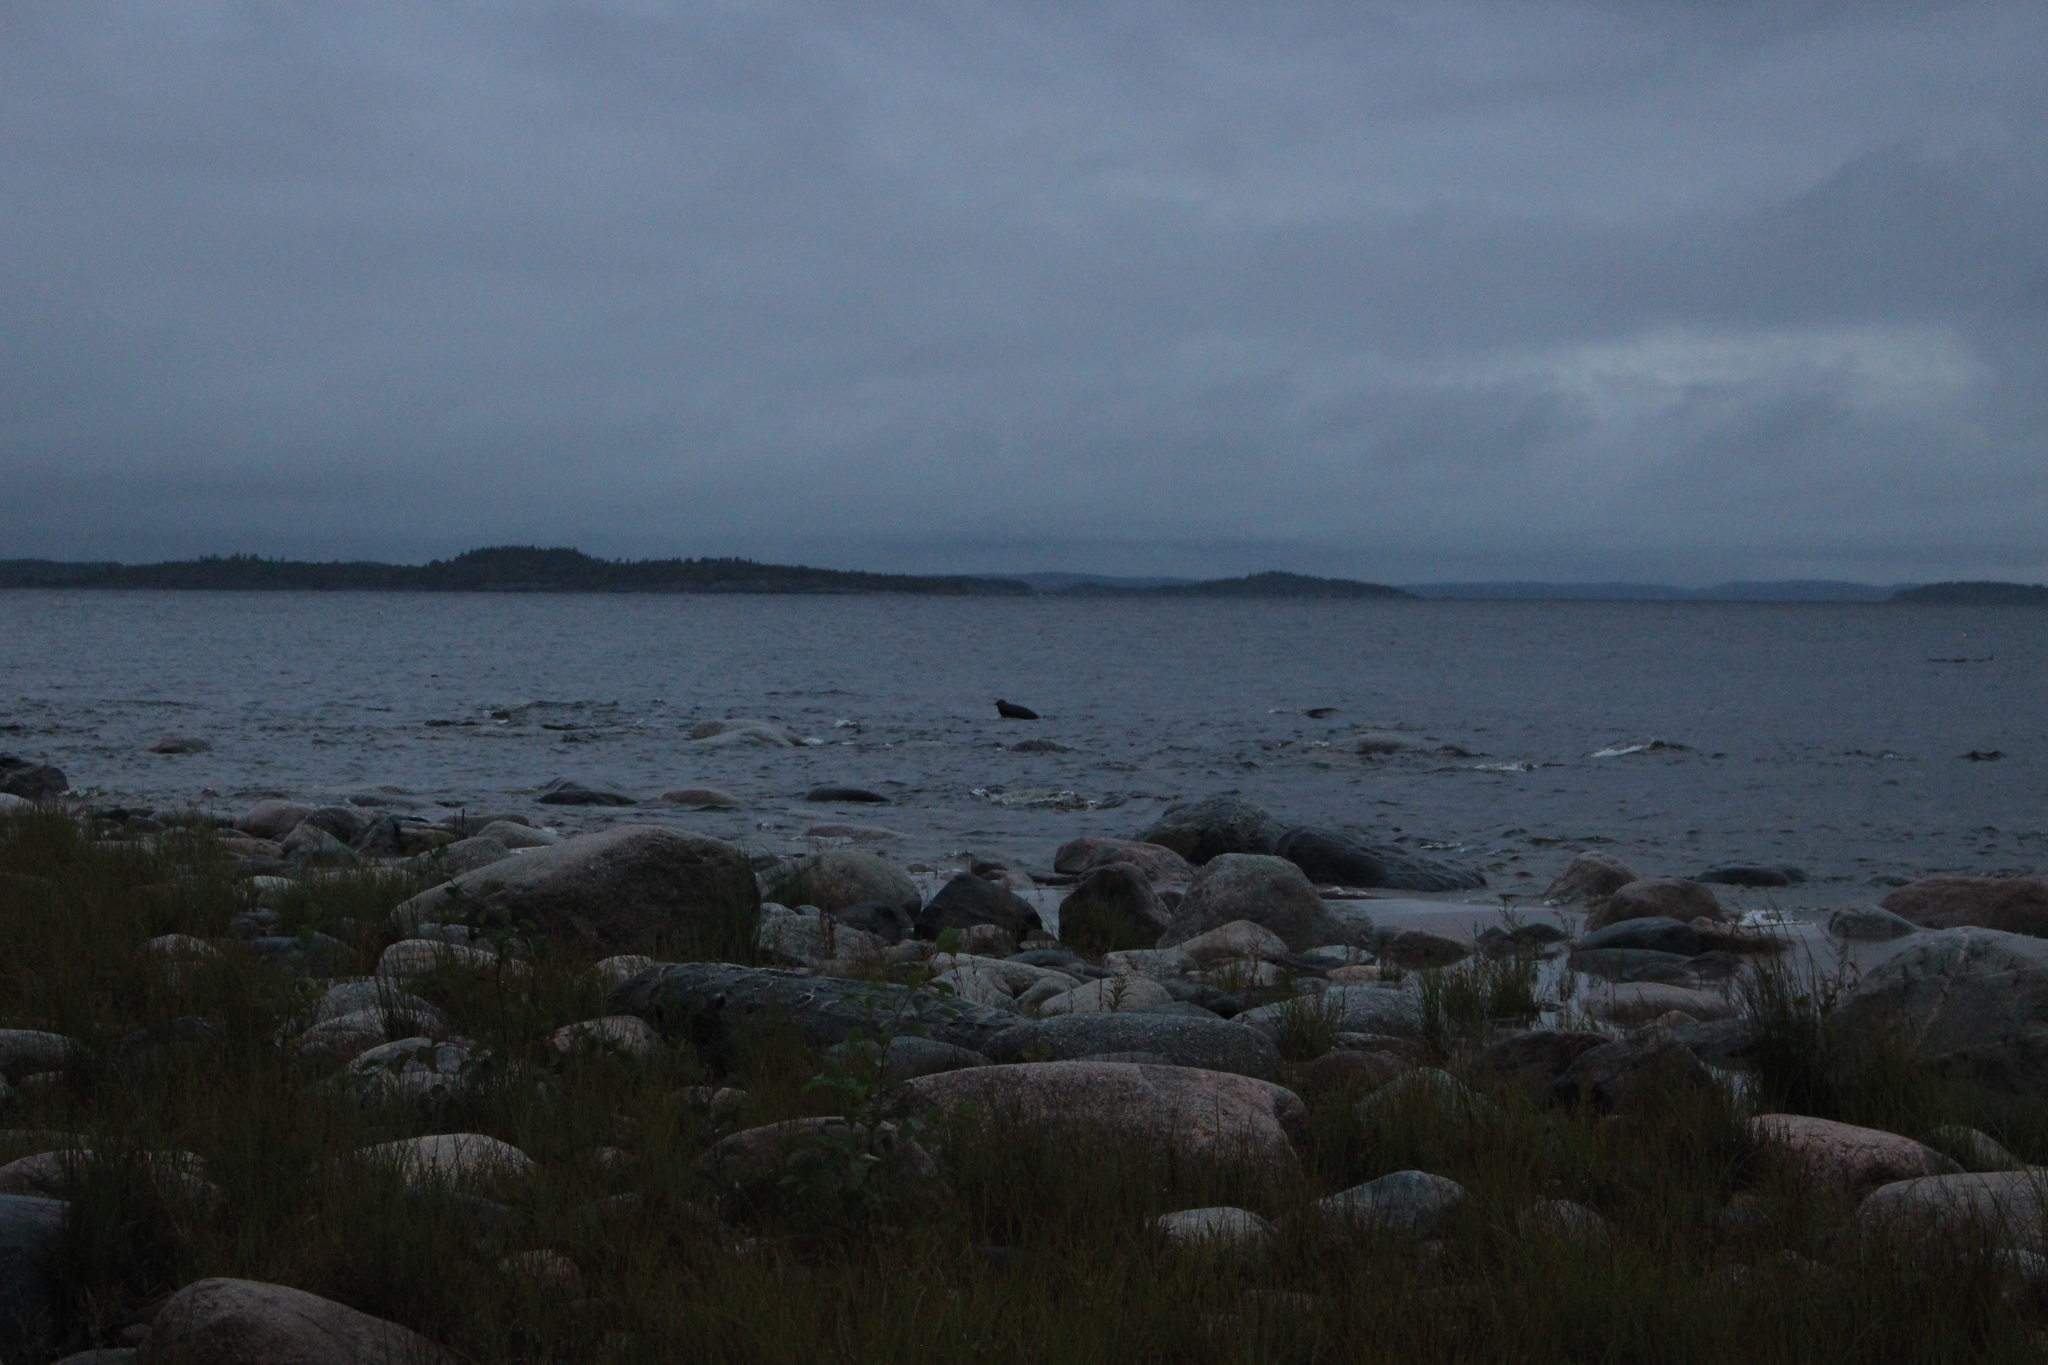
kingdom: Animalia
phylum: Chordata
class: Mammalia
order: Carnivora
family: Phocidae
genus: Pusa
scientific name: Pusa hispida
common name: Ringed seal
